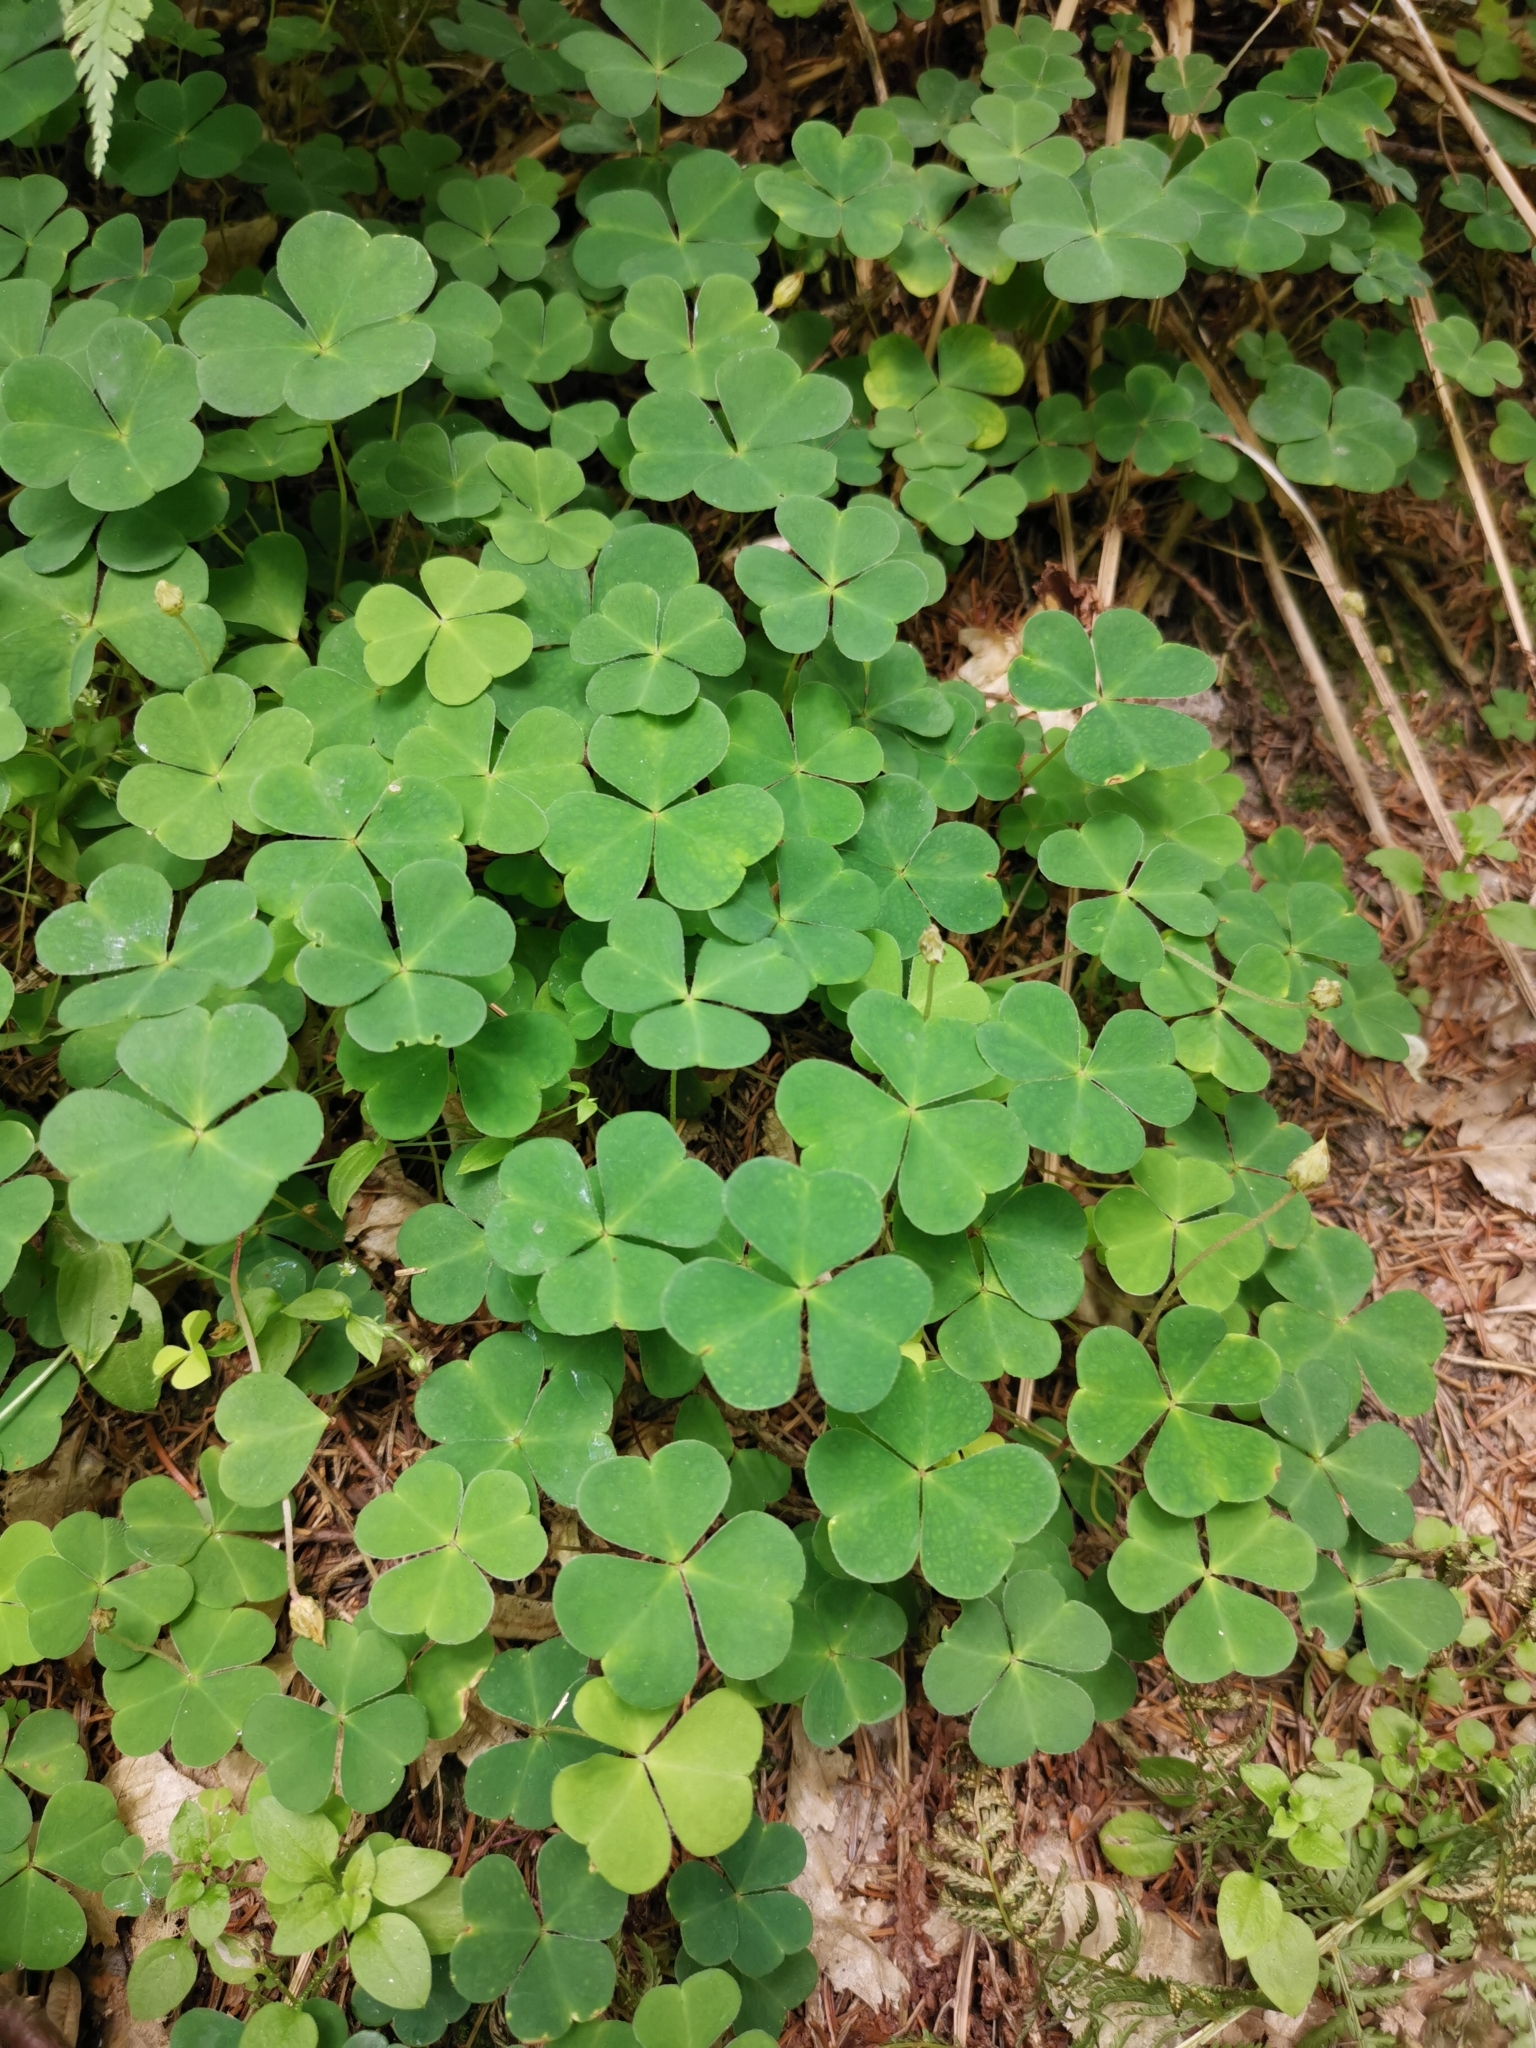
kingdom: Plantae
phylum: Tracheophyta
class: Magnoliopsida
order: Oxalidales
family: Oxalidaceae
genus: Oxalis
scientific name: Oxalis acetosella
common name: Wood-sorrel
